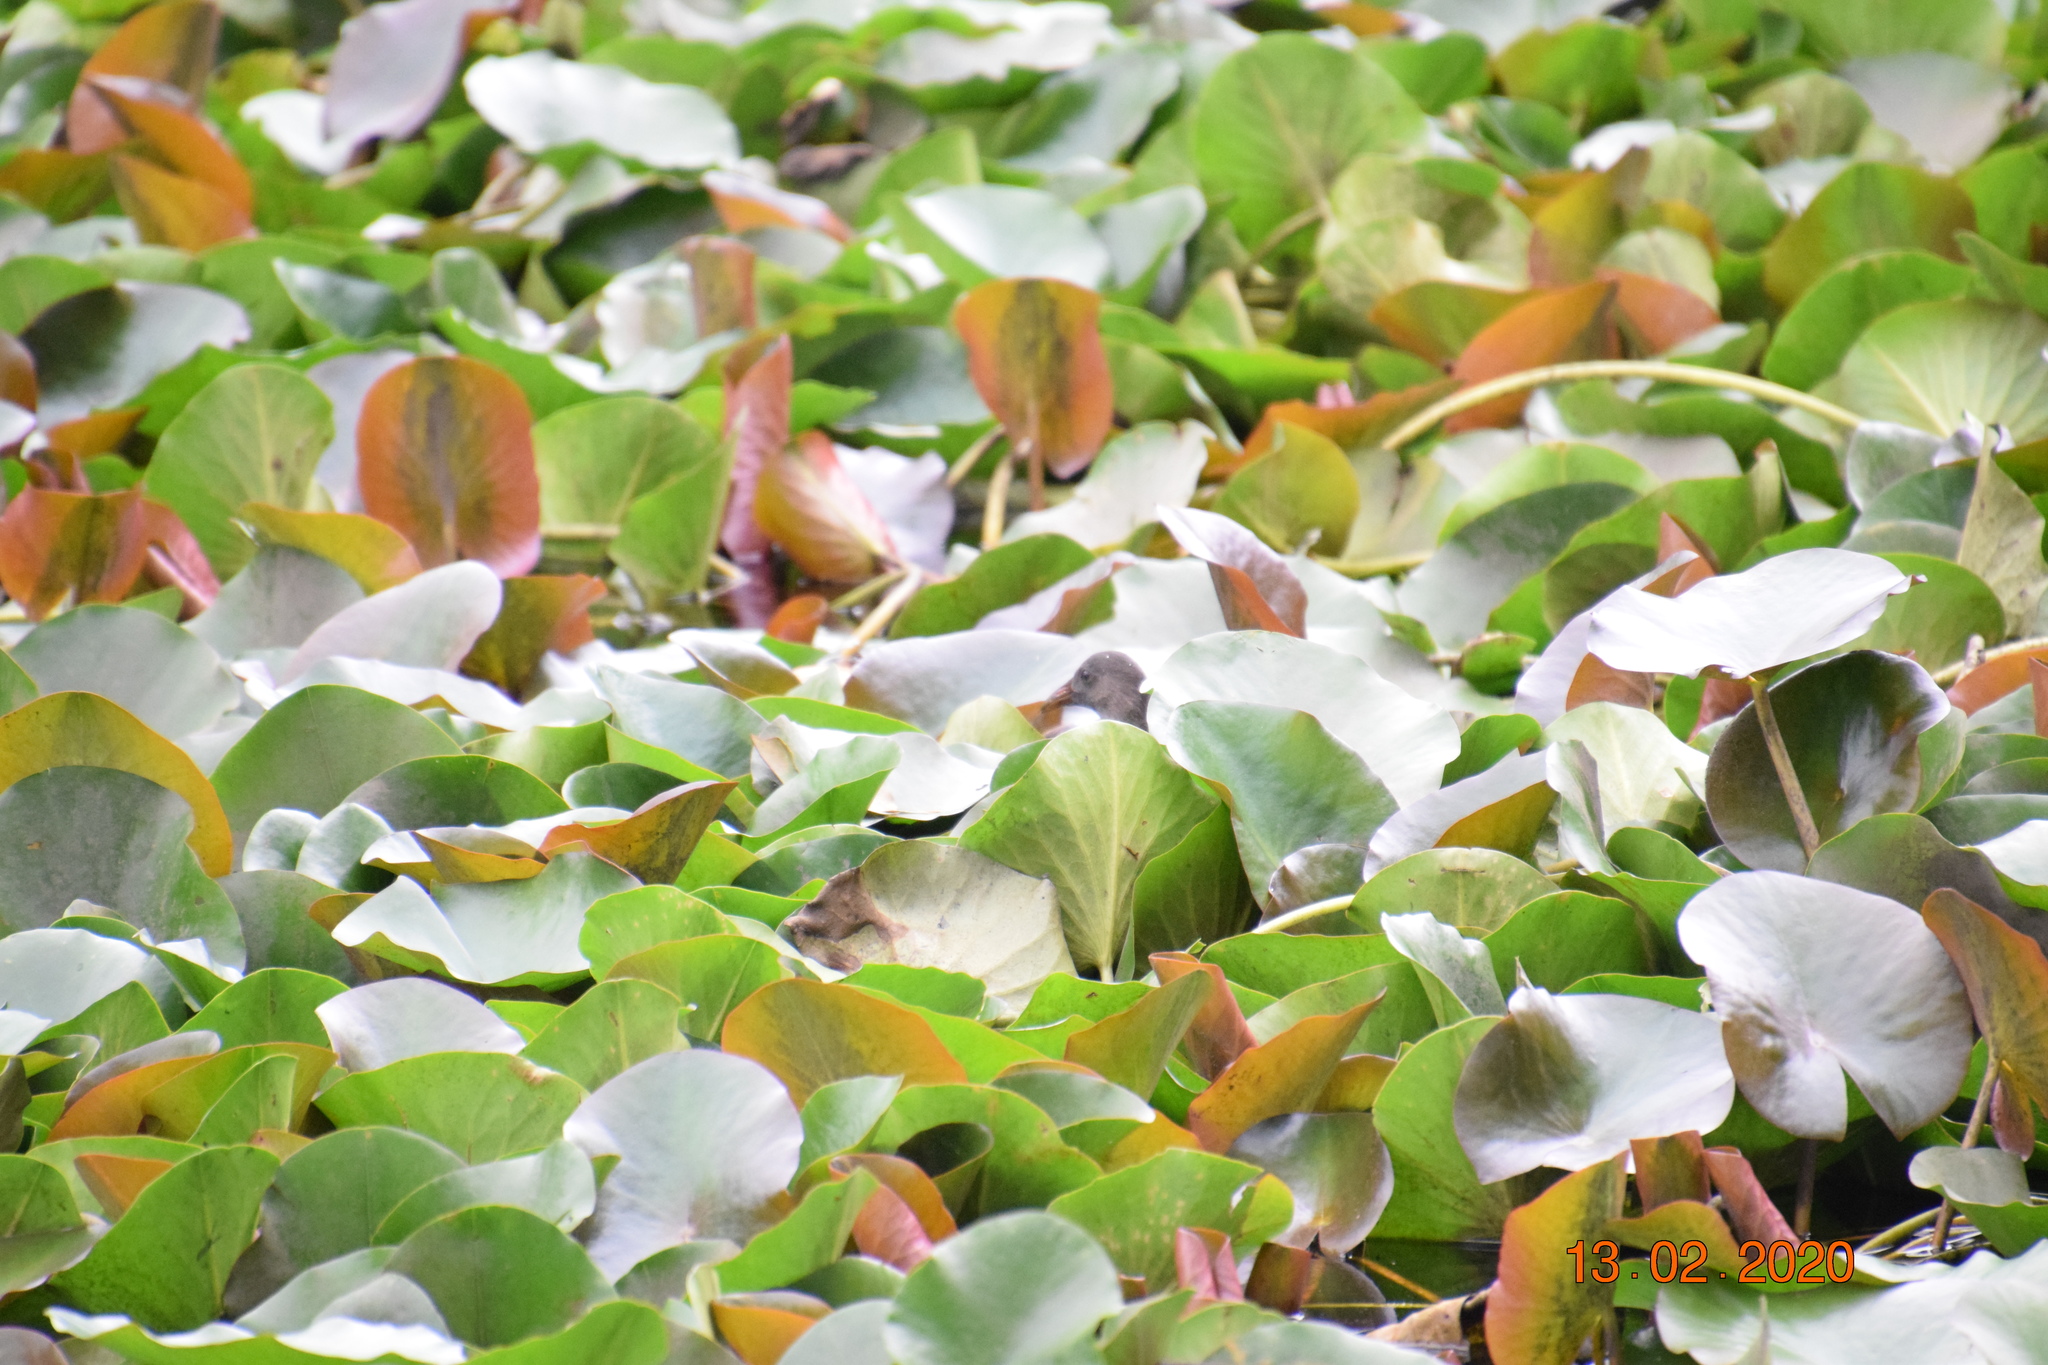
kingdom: Animalia
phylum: Chordata
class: Aves
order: Gruiformes
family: Rallidae
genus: Gallinula
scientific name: Gallinula tenebrosa
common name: Dusky moorhen
